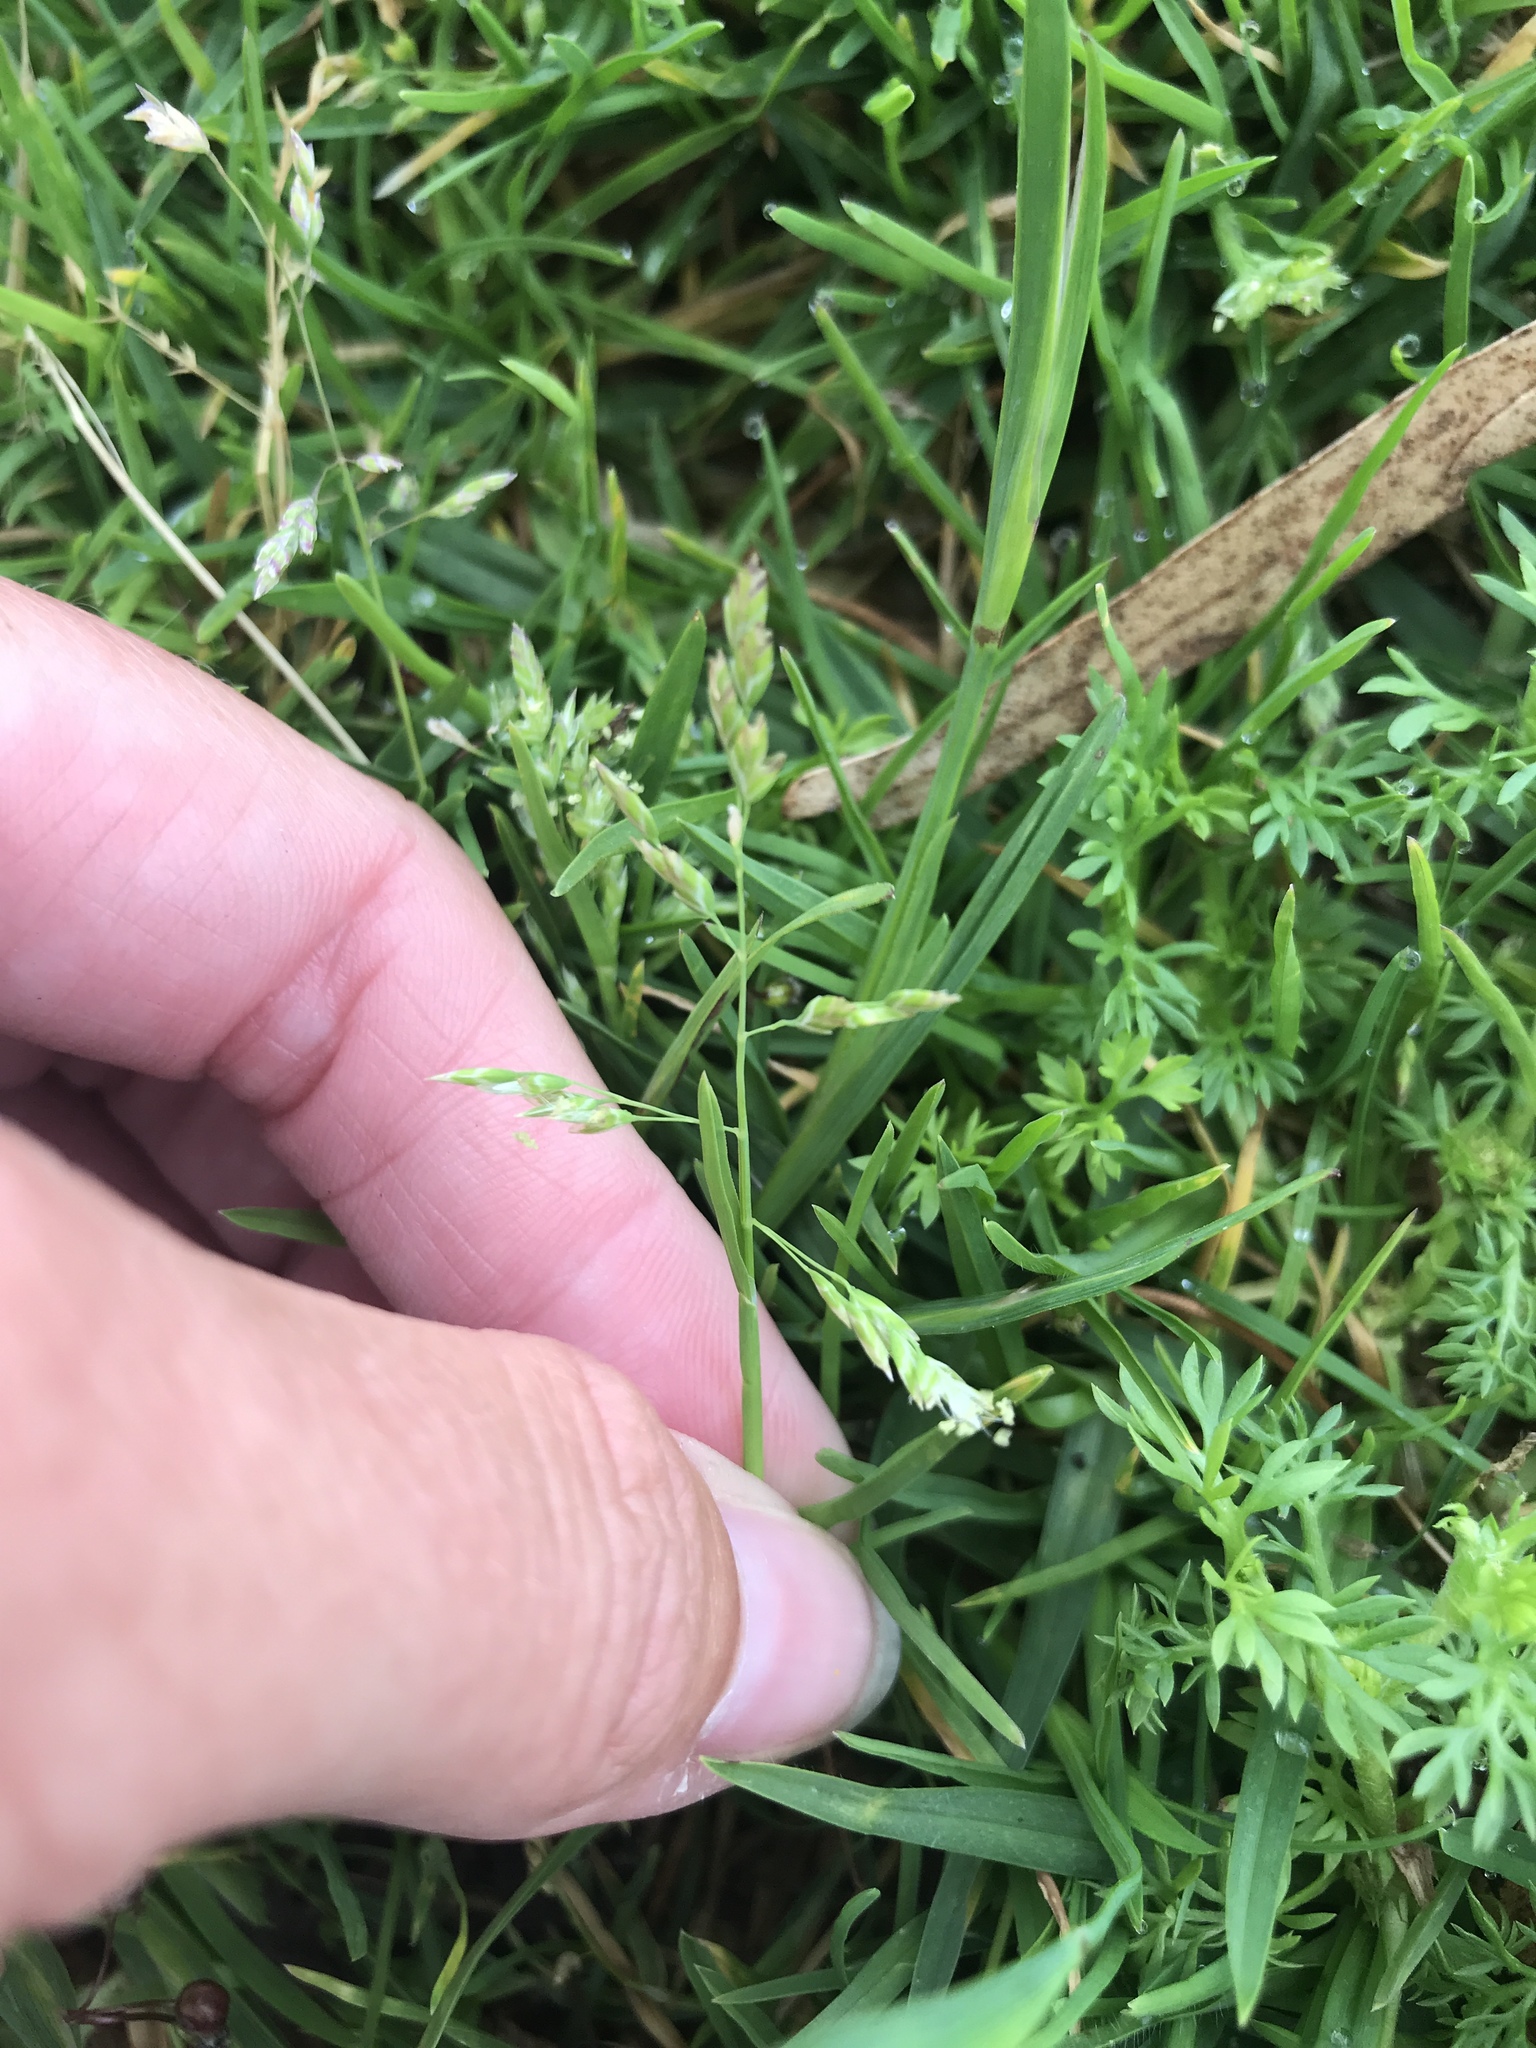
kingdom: Plantae
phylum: Tracheophyta
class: Liliopsida
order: Poales
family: Poaceae
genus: Poa
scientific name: Poa annua
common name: Annual bluegrass
